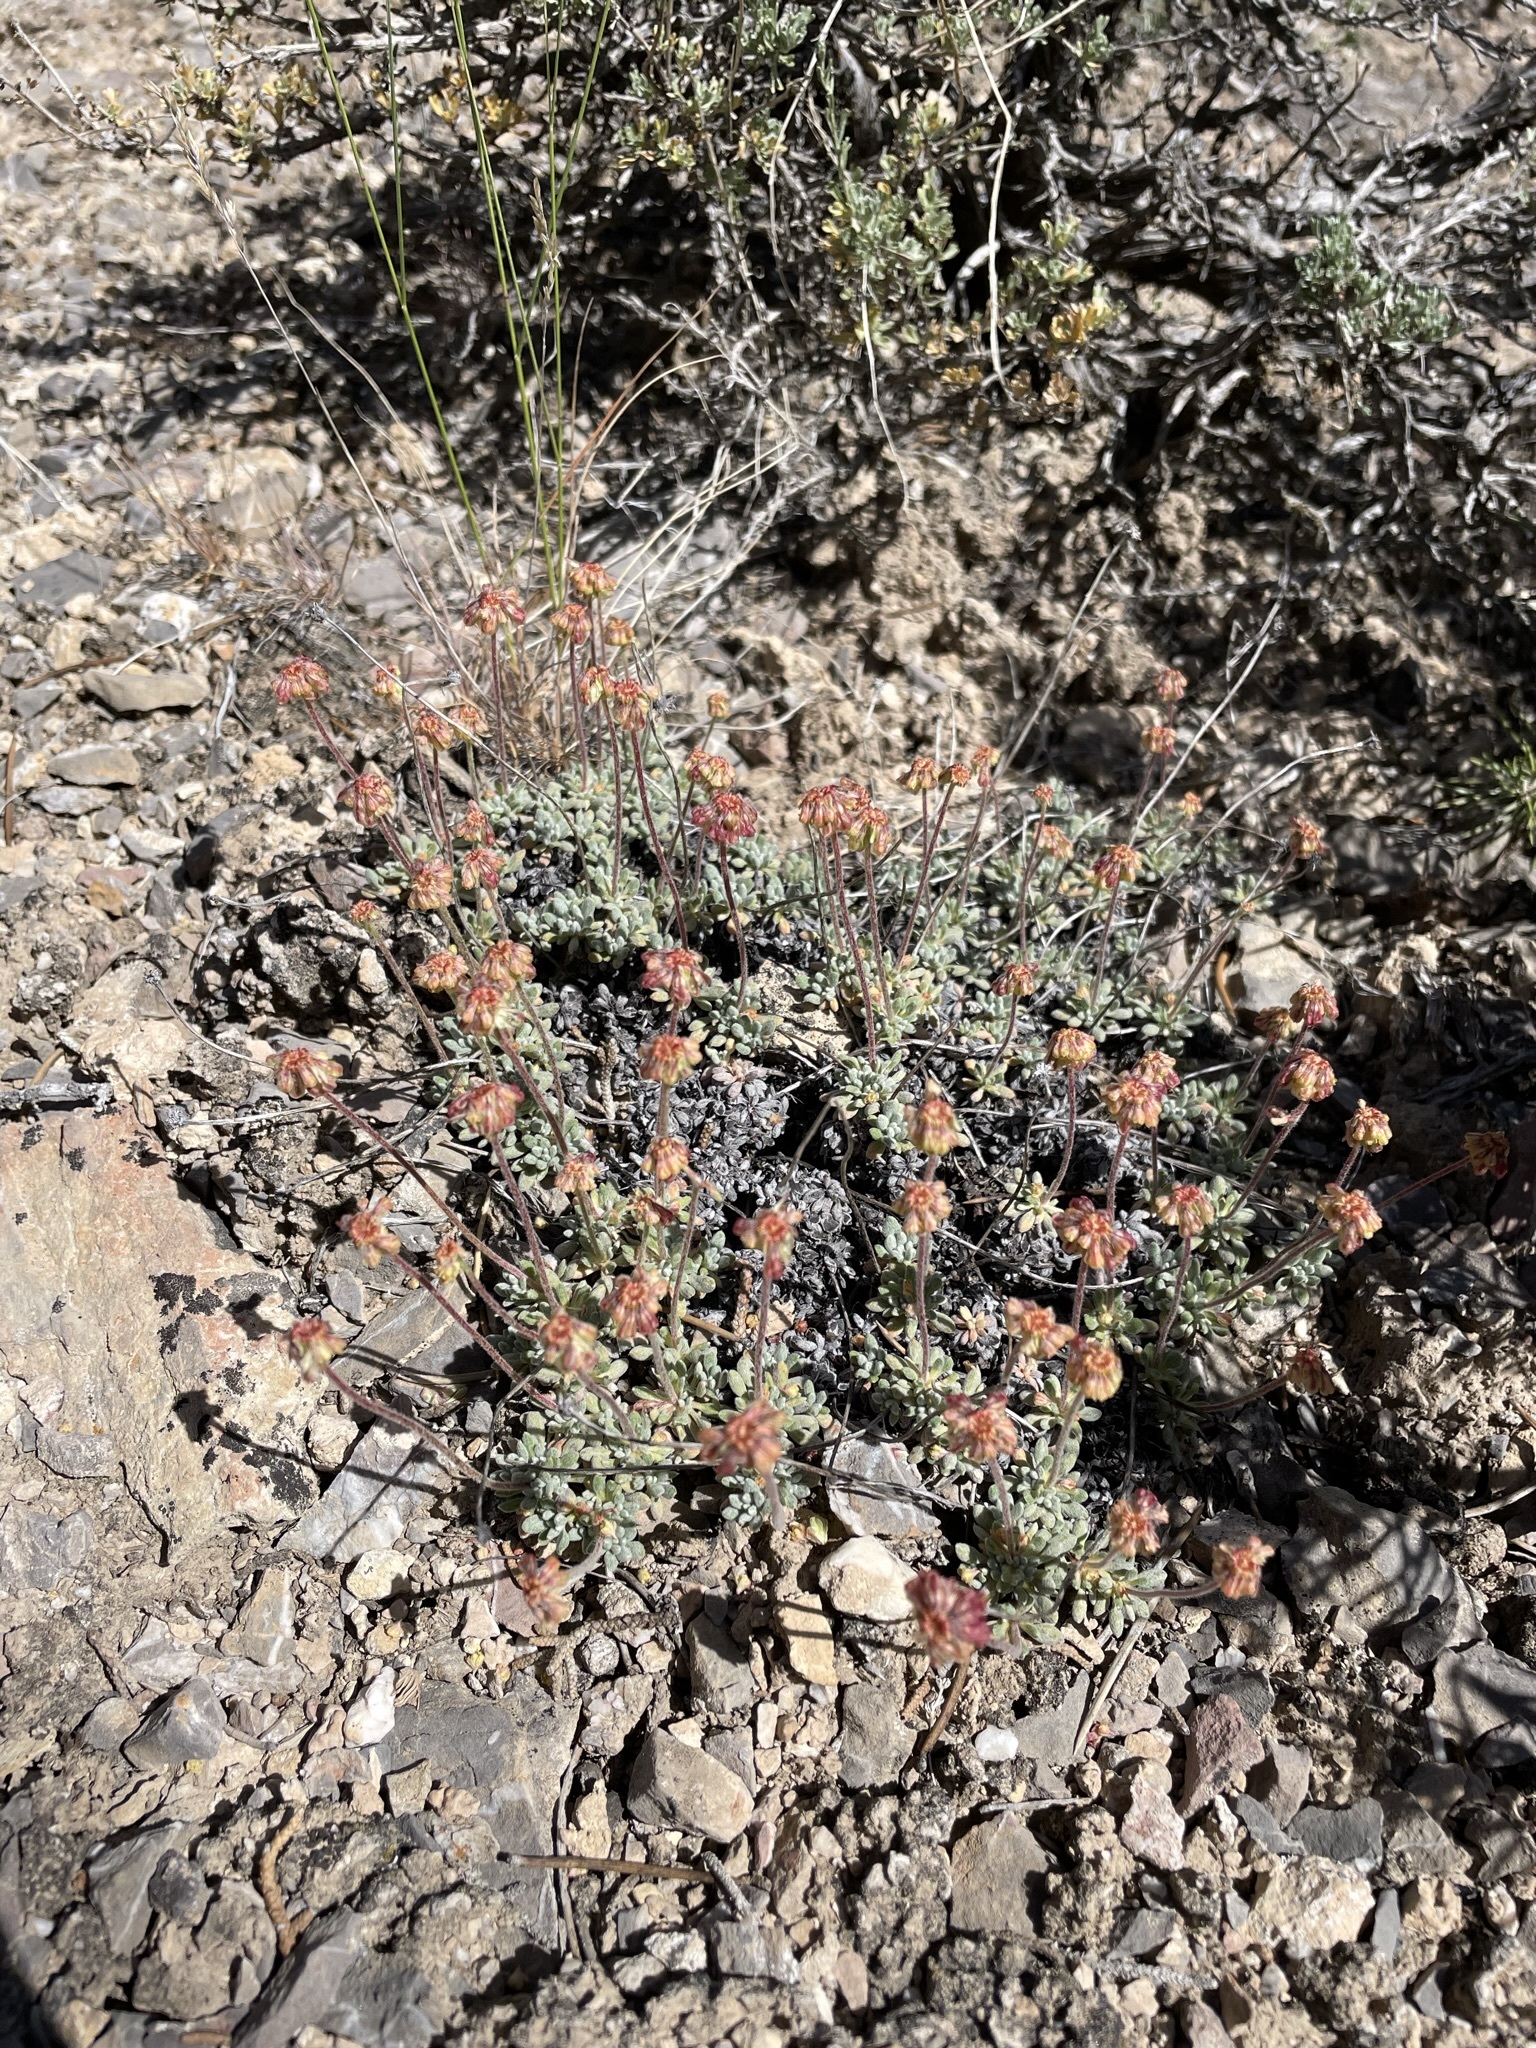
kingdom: Plantae
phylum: Tracheophyta
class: Magnoliopsida
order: Caryophyllales
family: Polygonaceae
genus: Eriogonum
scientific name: Eriogonum caespitosum
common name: Matted wild buckwheat
